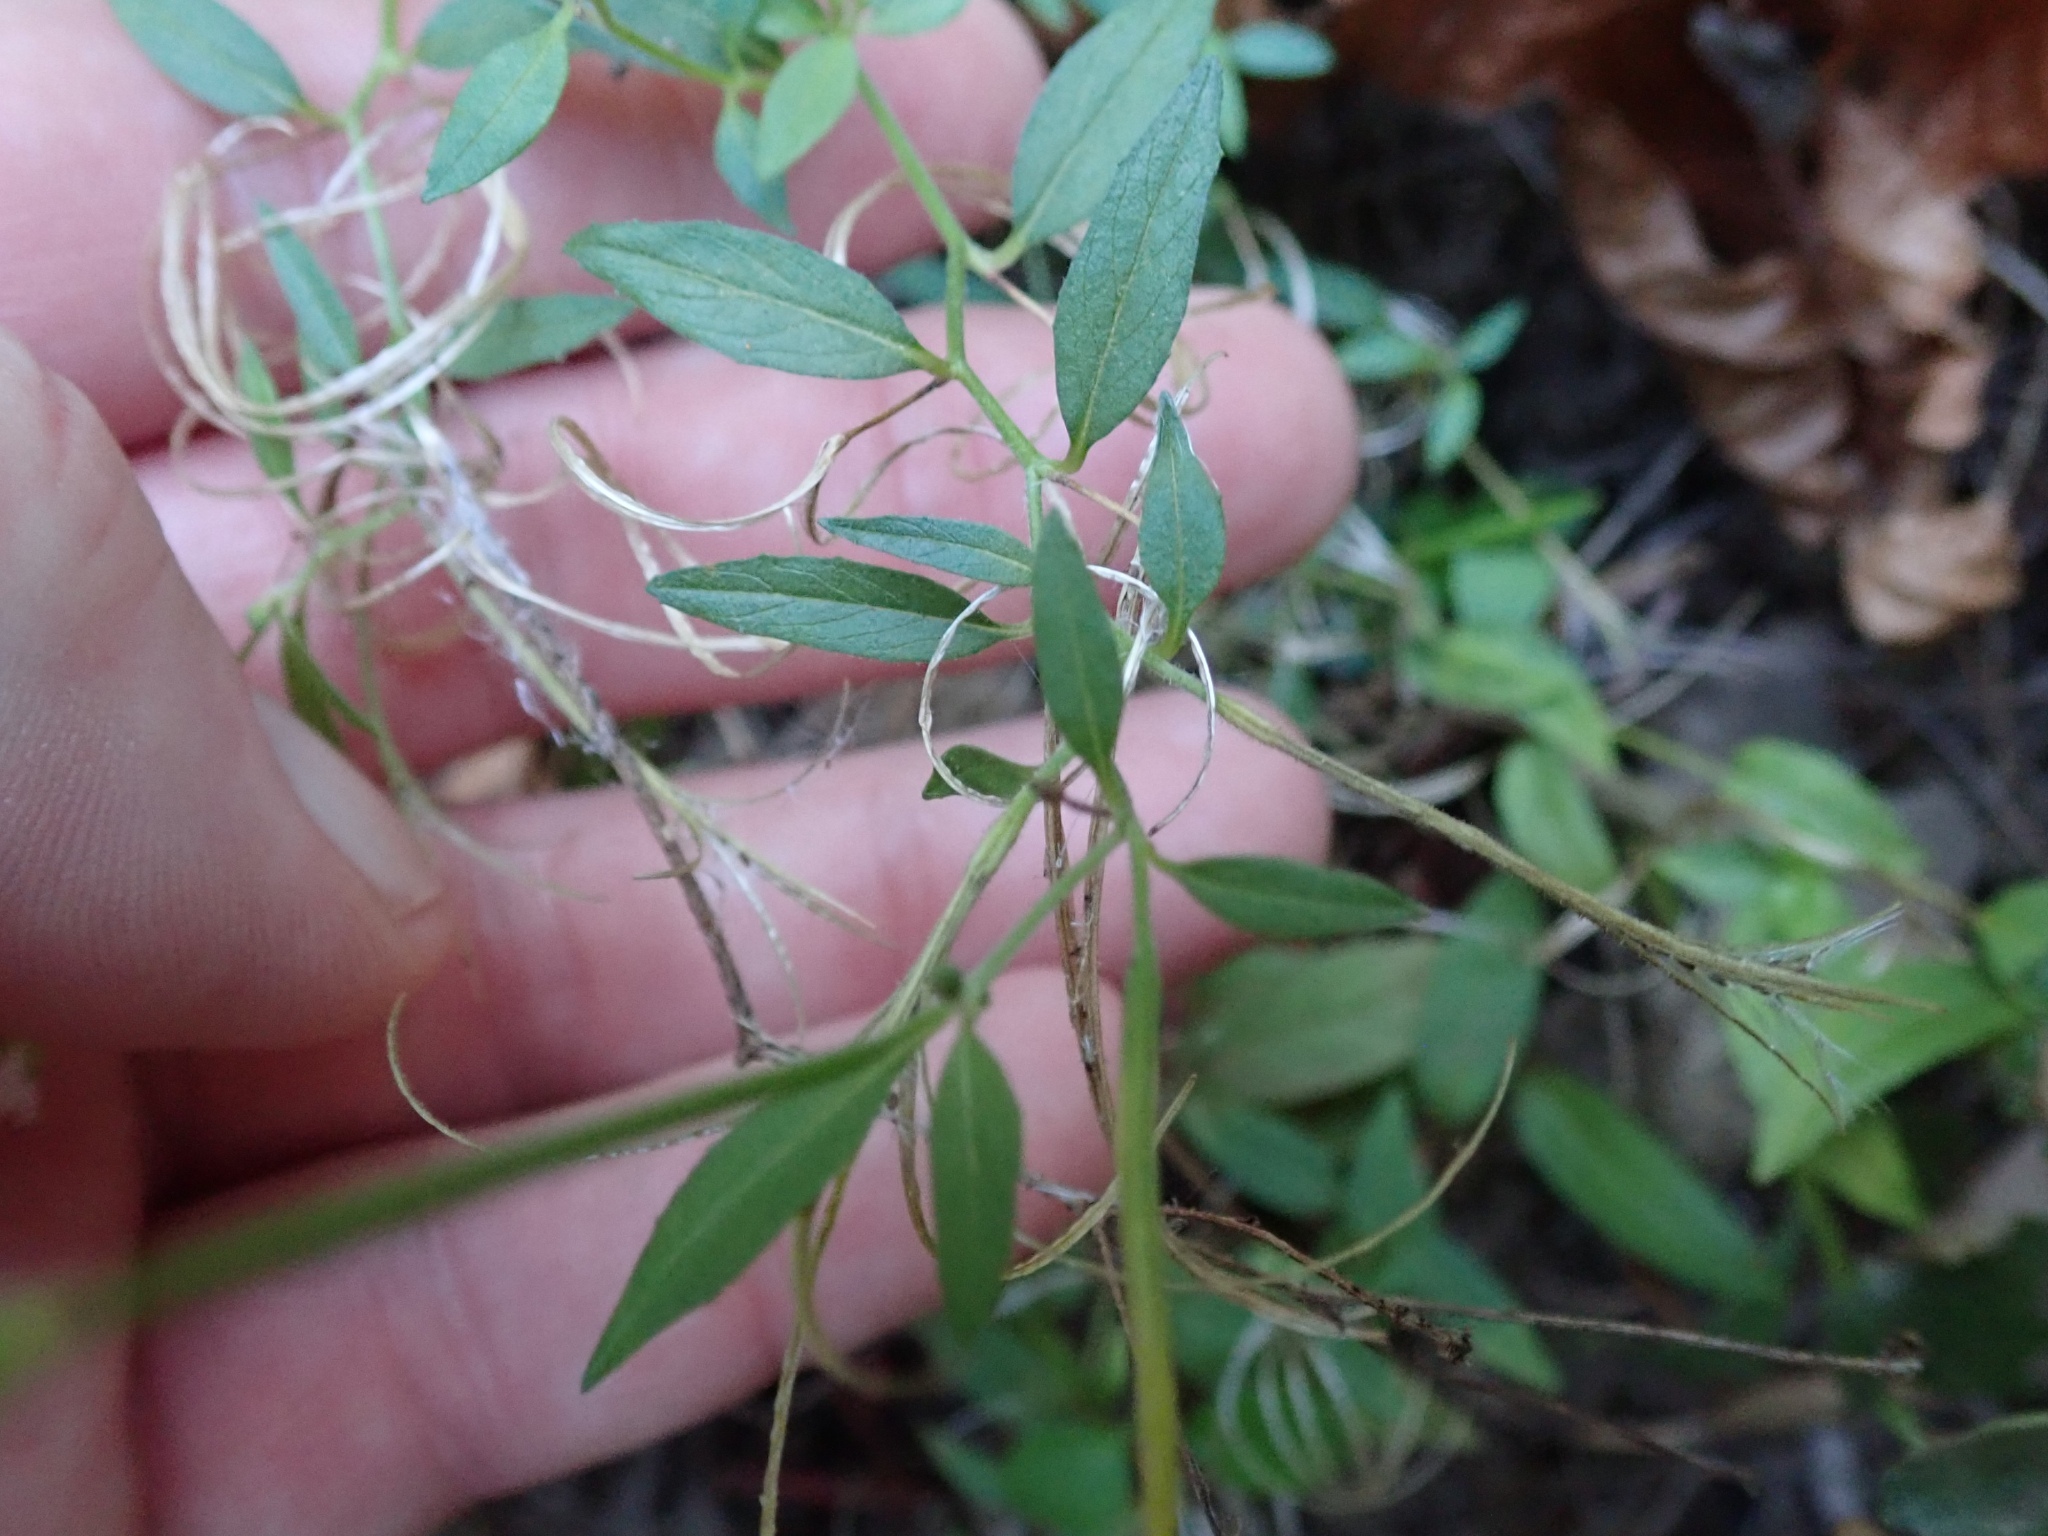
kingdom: Plantae
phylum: Tracheophyta
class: Magnoliopsida
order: Myrtales
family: Onagraceae
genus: Epilobium
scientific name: Epilobium ciliatum
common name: American willowherb
